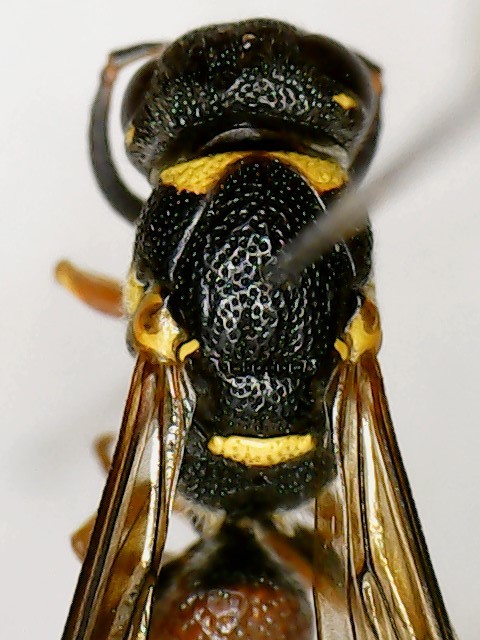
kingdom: Animalia
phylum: Arthropoda
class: Insecta
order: Hymenoptera
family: Eumenidae
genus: Parancistrocerus
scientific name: Parancistrocerus perennis
